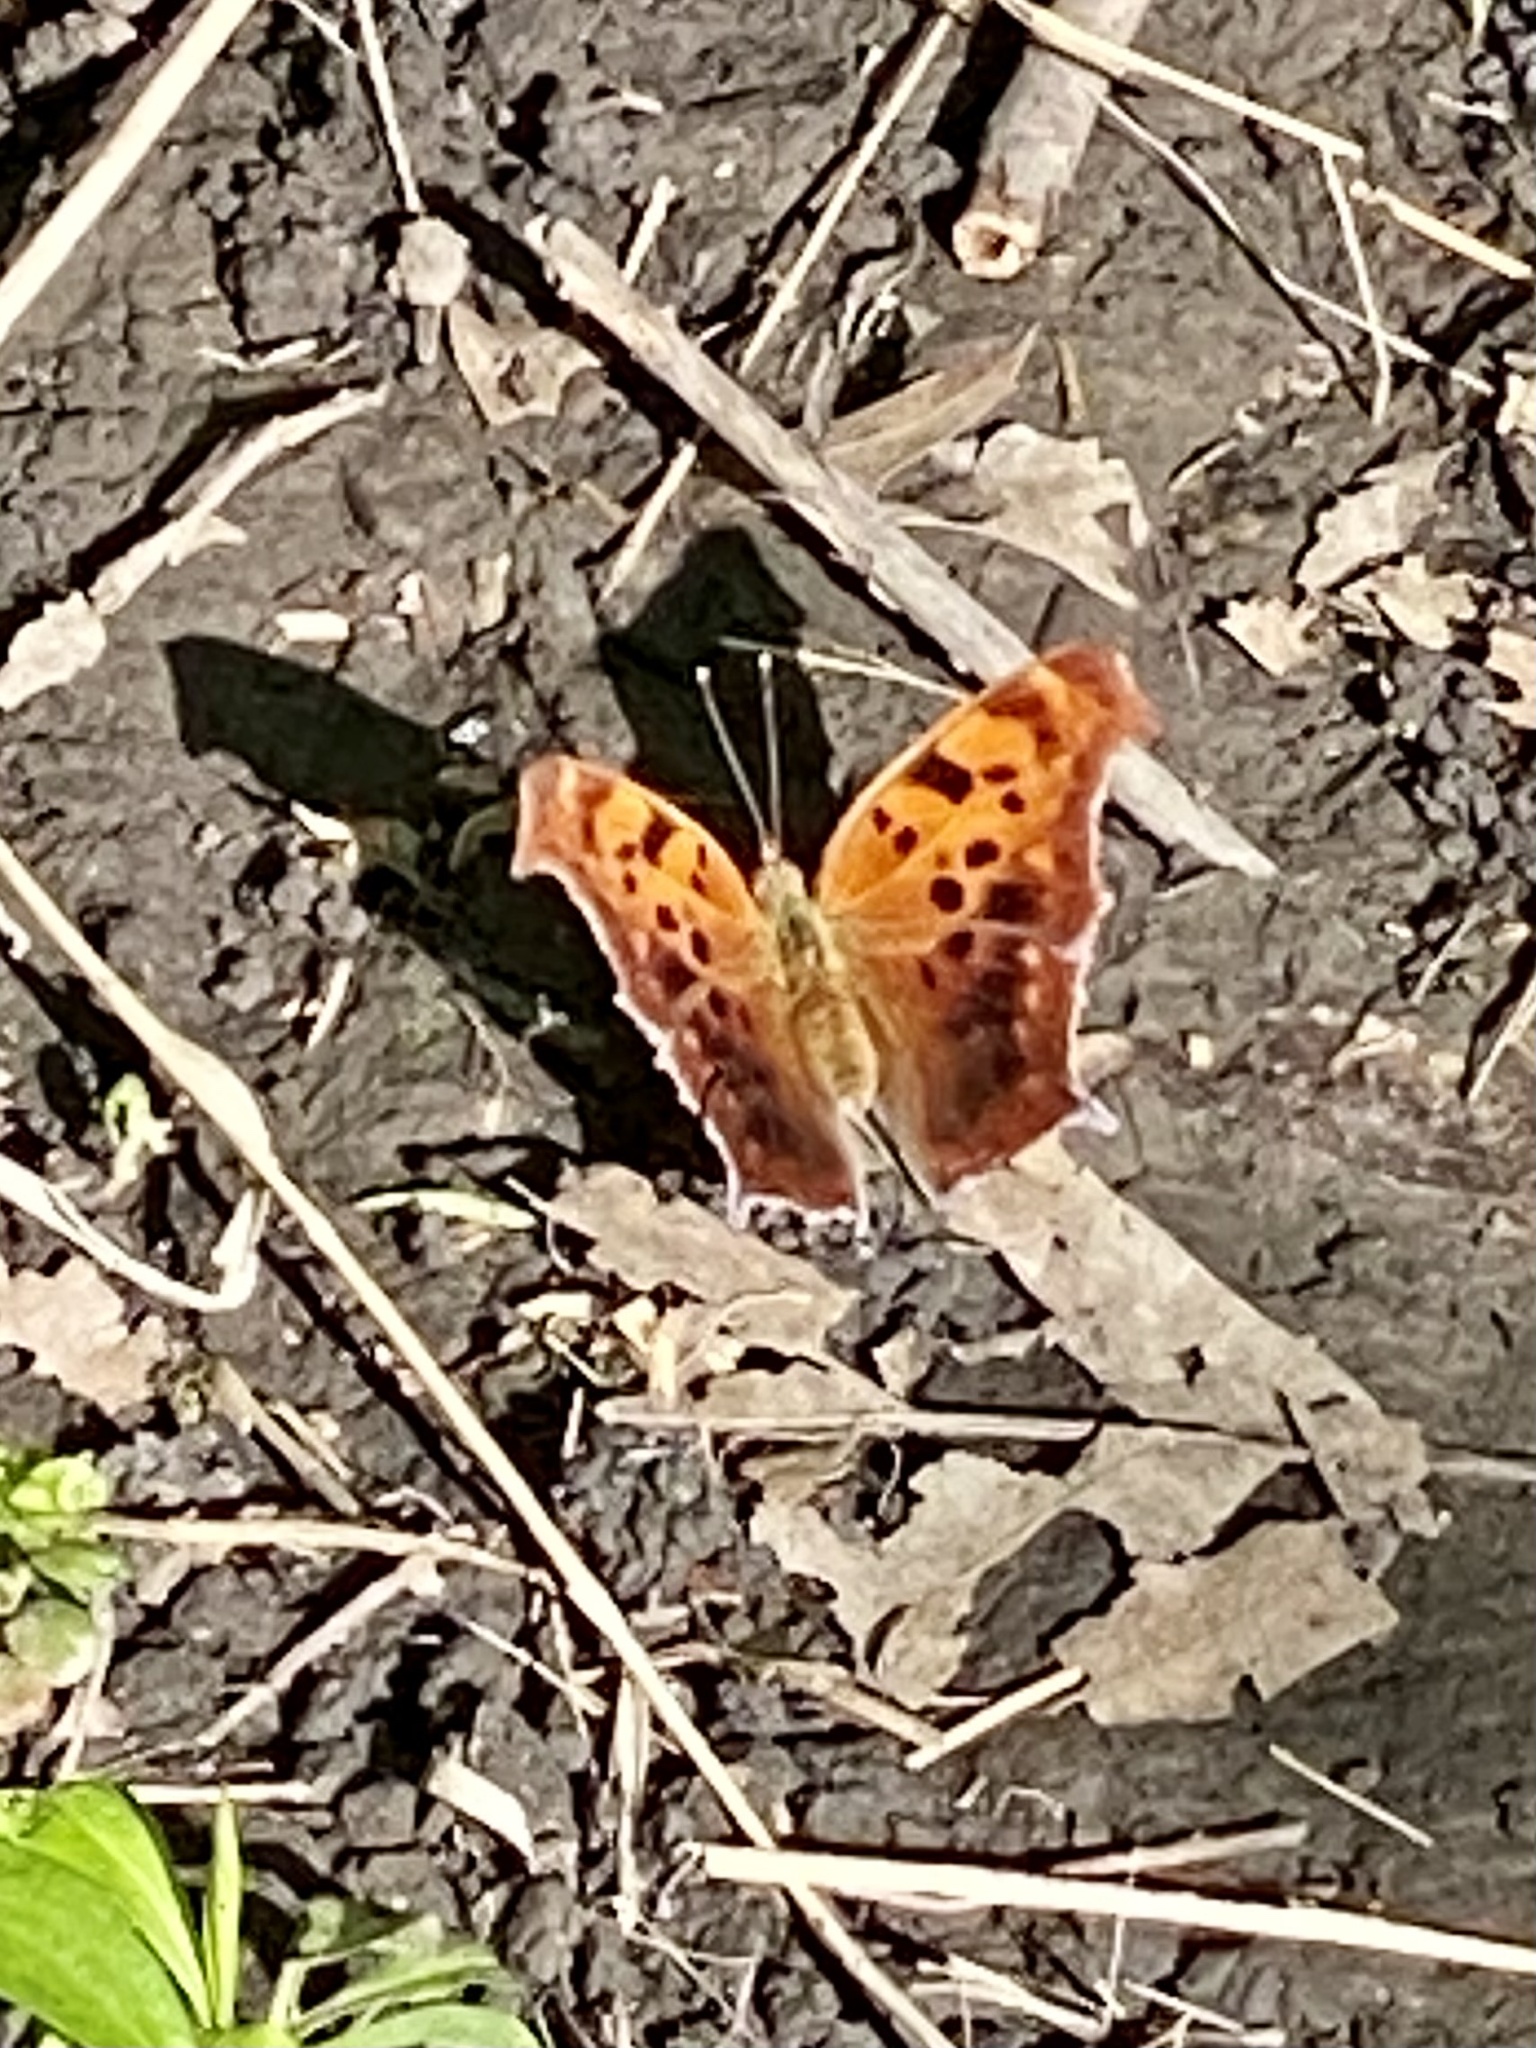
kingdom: Animalia
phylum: Arthropoda
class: Insecta
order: Lepidoptera
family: Nymphalidae
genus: Polygonia
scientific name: Polygonia interrogationis
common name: Question mark
